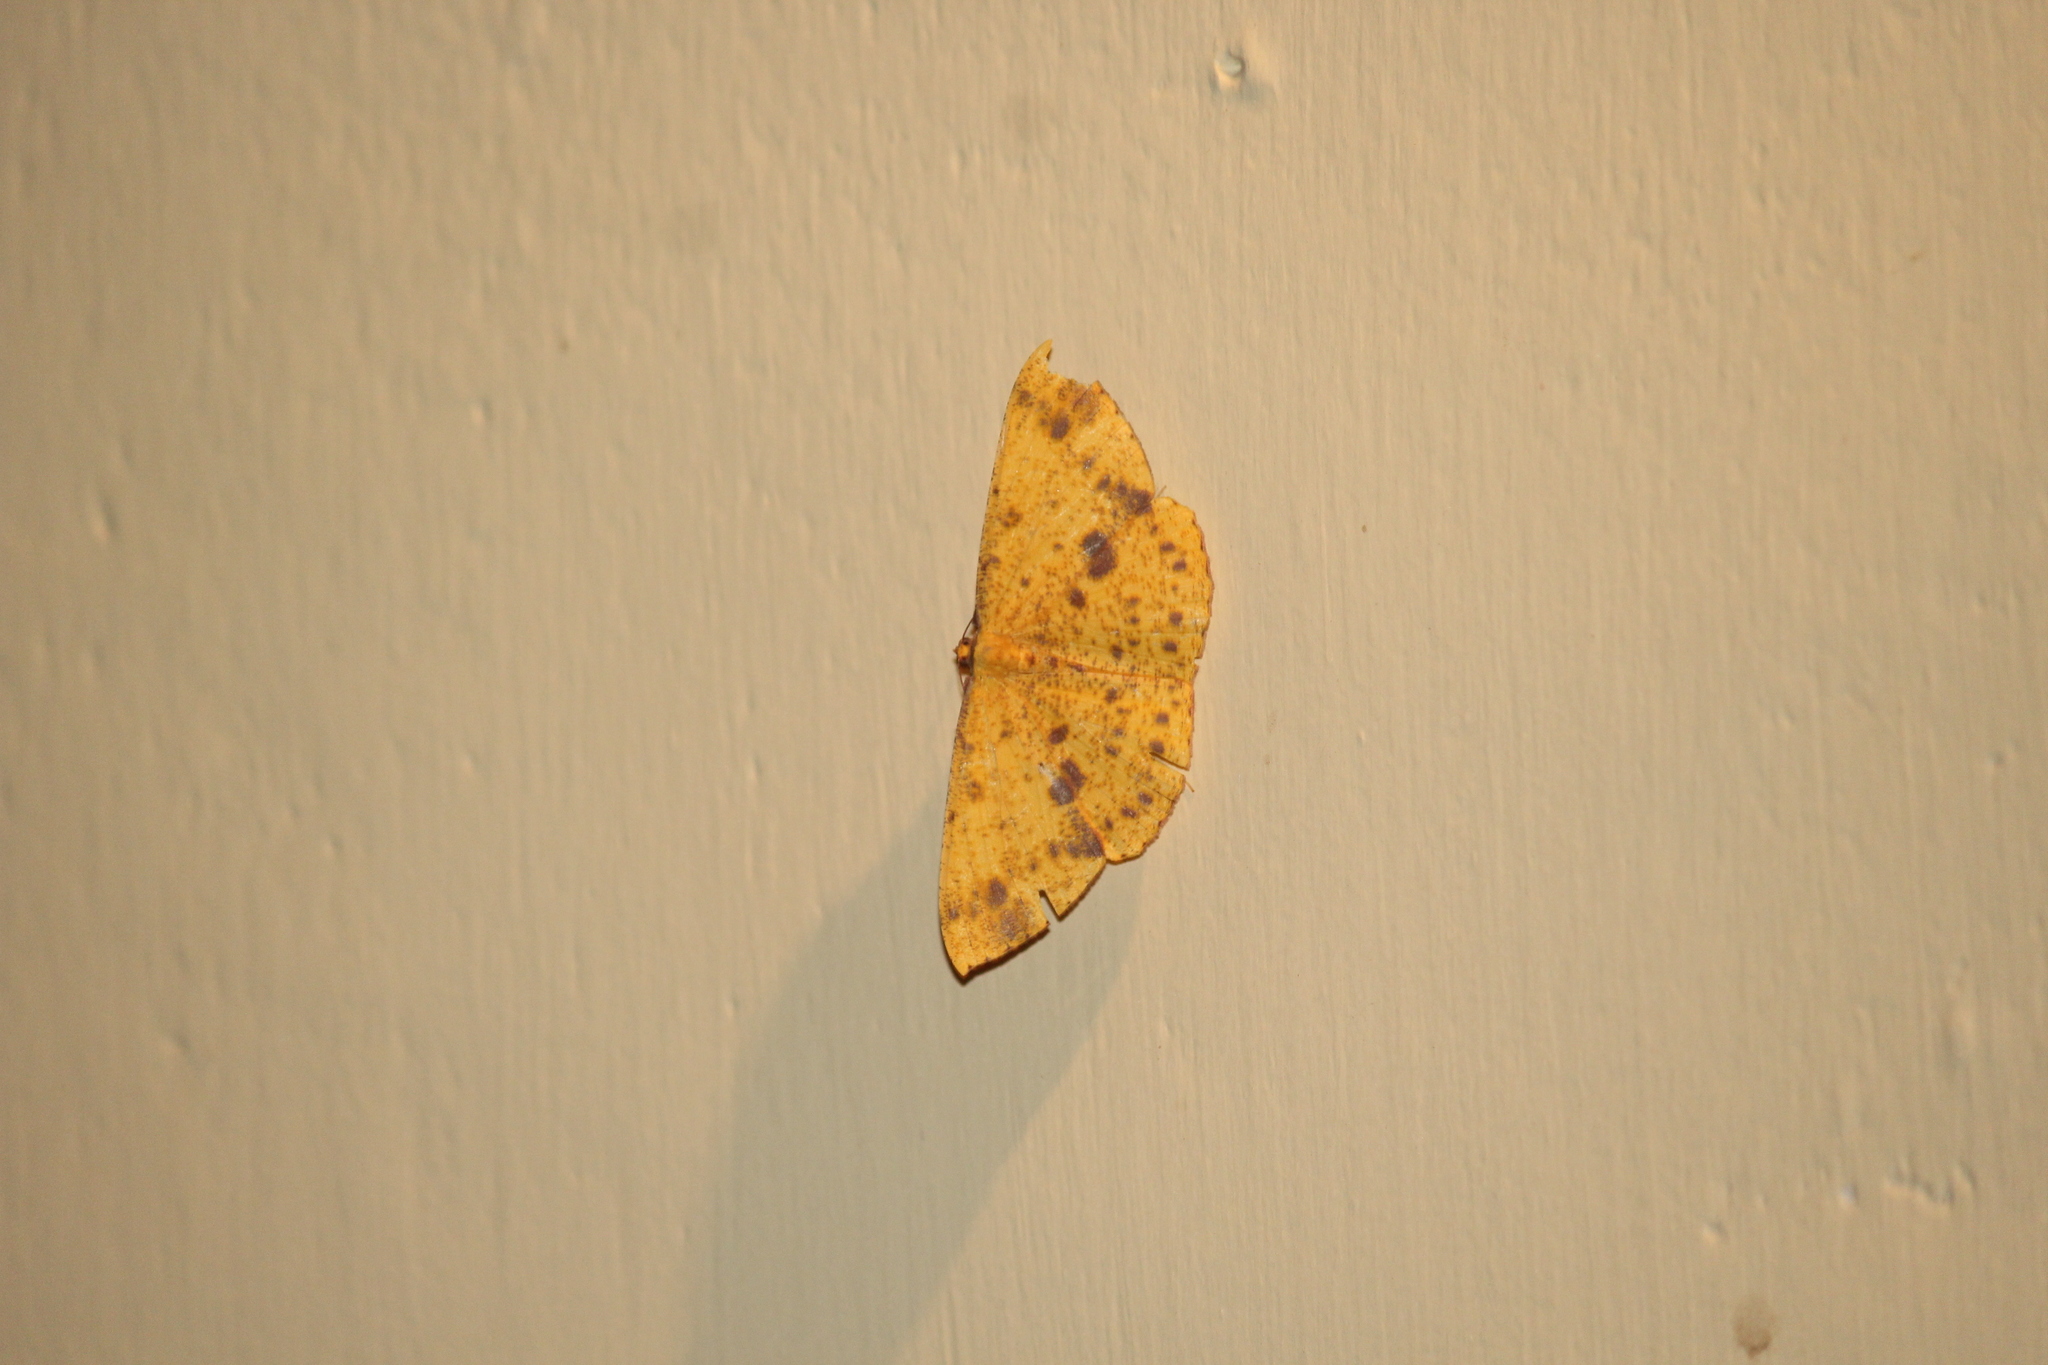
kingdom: Animalia
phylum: Arthropoda
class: Insecta
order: Lepidoptera
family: Geometridae
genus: Eumelea
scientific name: Eumelea ludovicata
